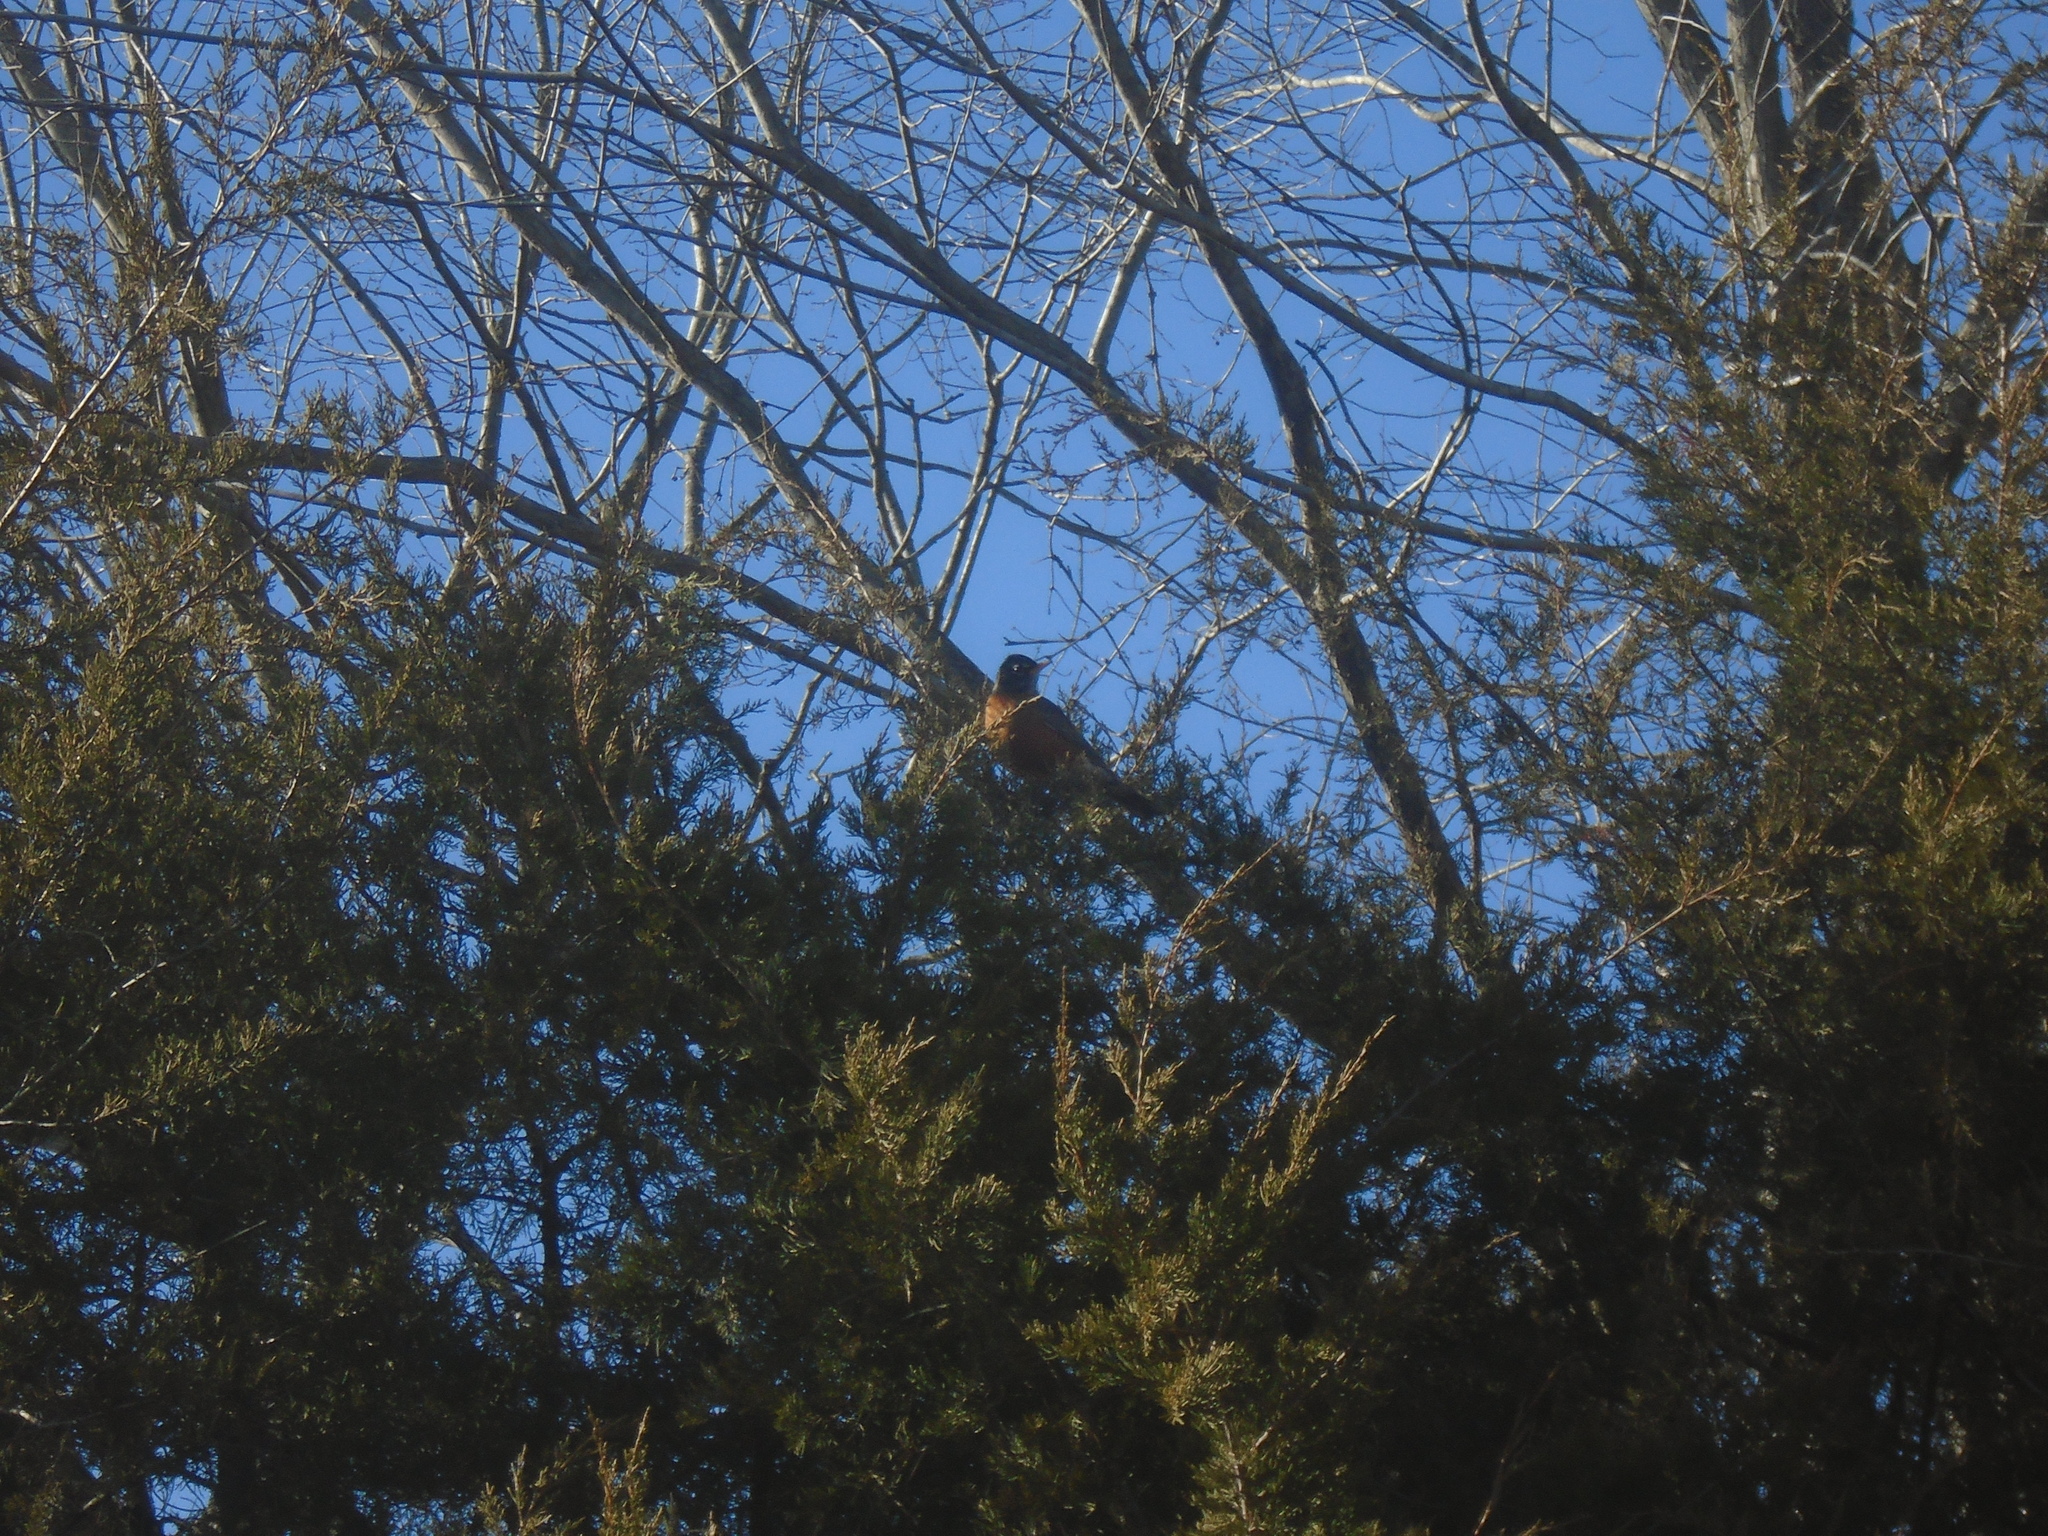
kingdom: Animalia
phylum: Chordata
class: Aves
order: Passeriformes
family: Turdidae
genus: Turdus
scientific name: Turdus migratorius
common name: American robin
